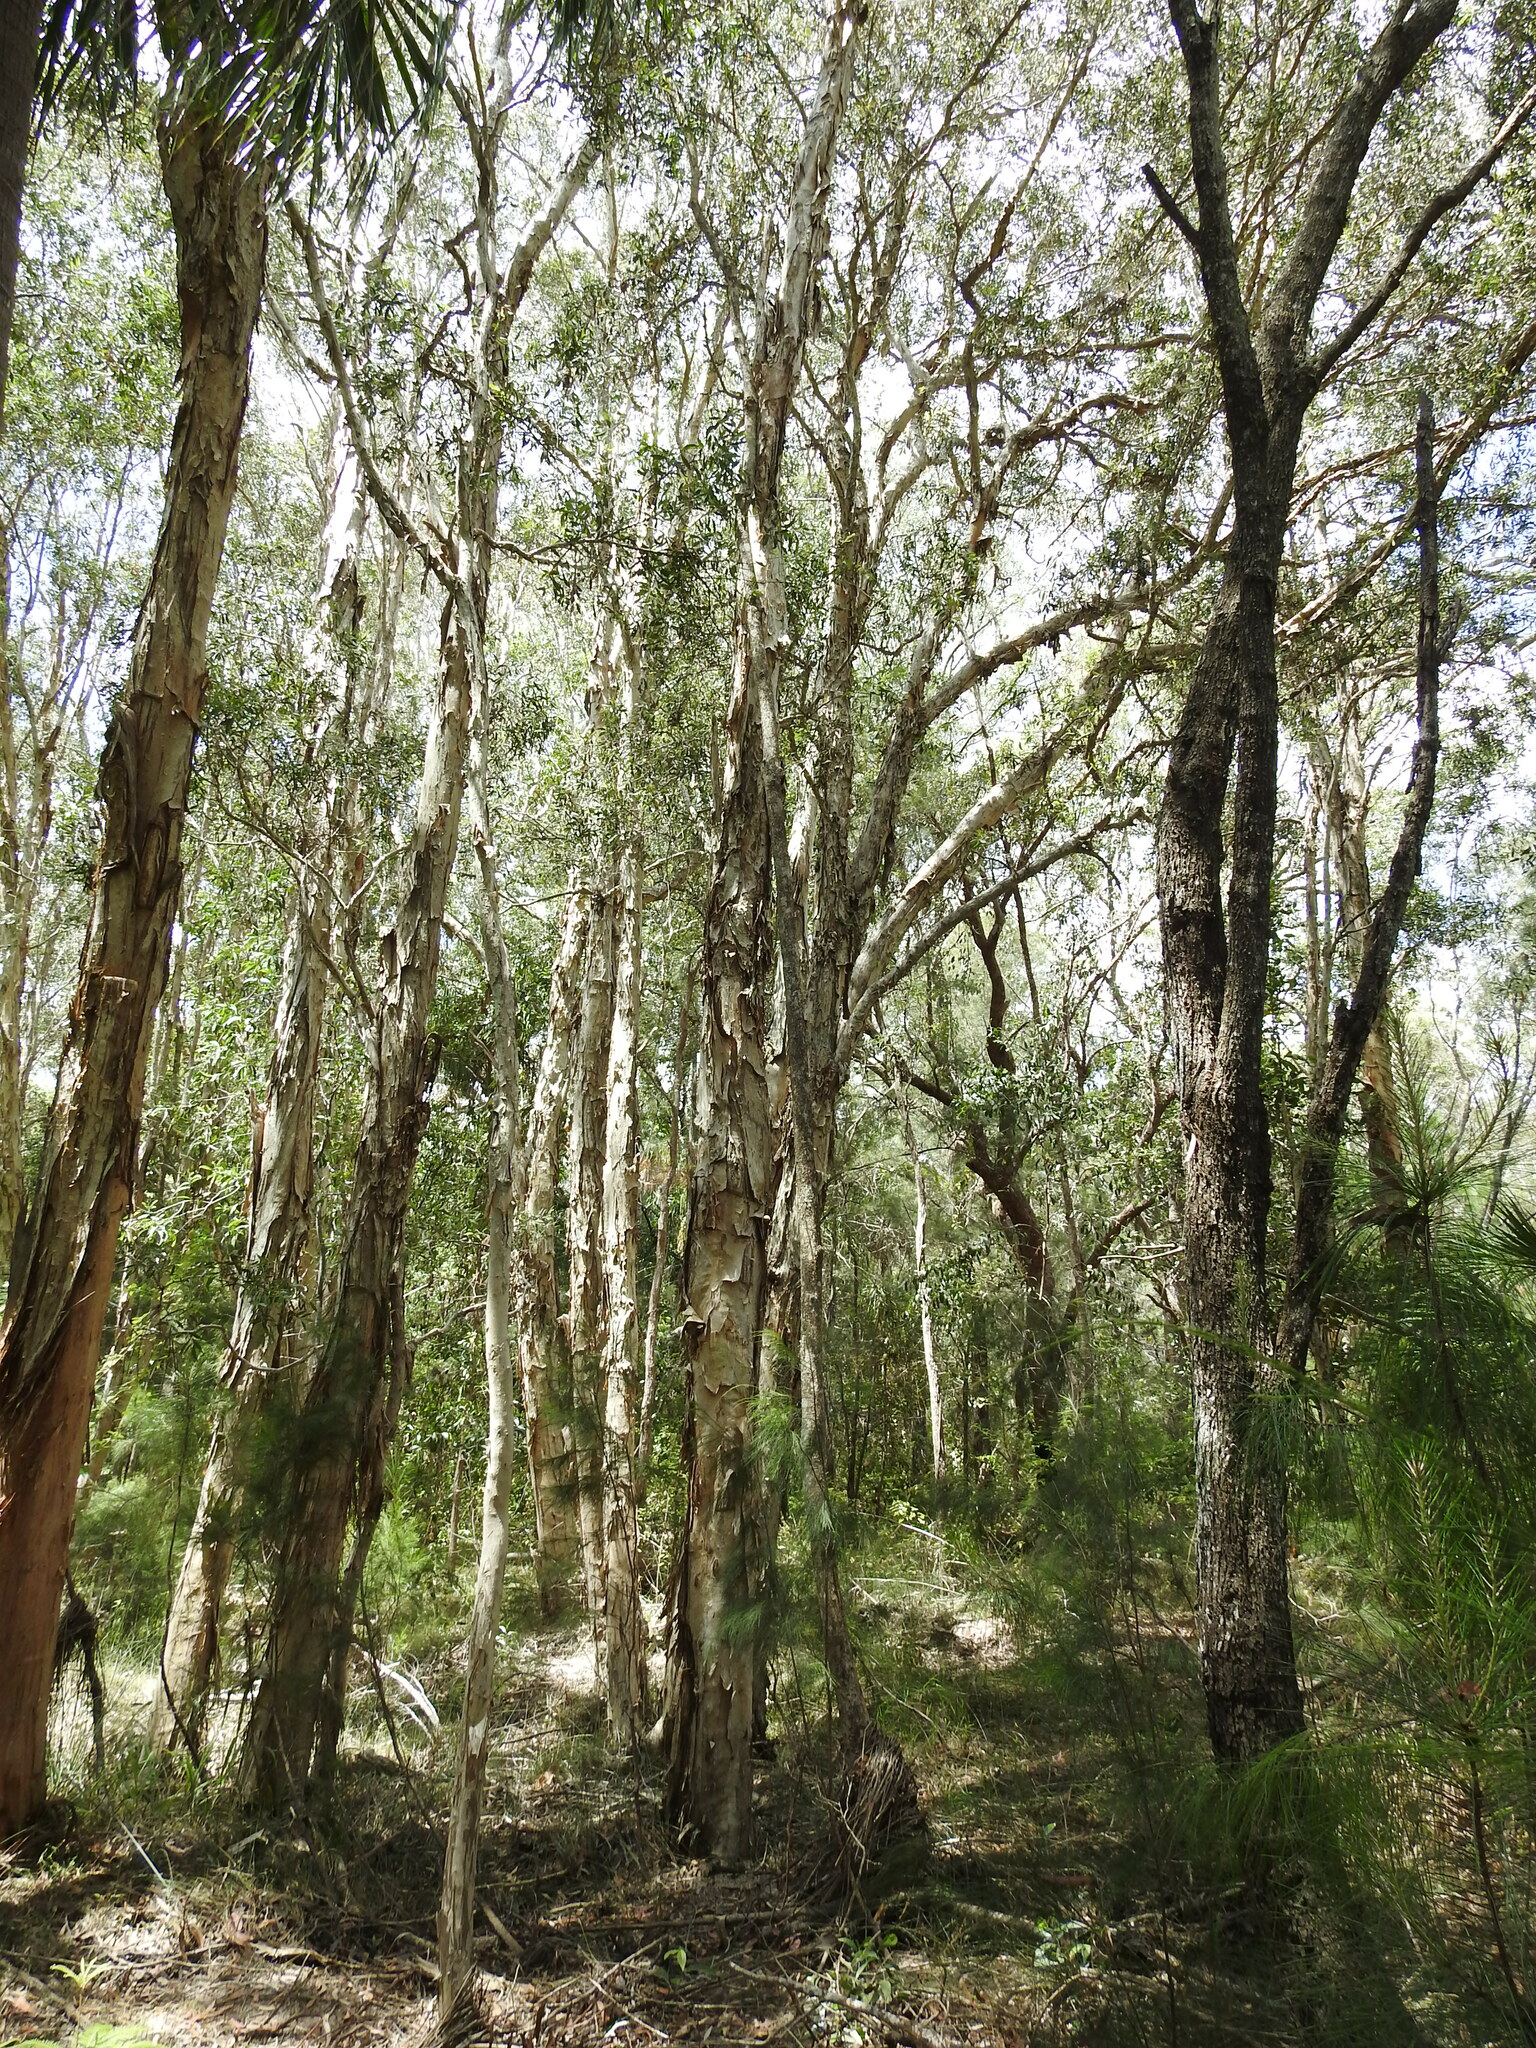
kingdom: Plantae
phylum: Tracheophyta
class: Magnoliopsida
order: Myrtales
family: Myrtaceae
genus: Melaleuca
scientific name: Melaleuca quinquenervia
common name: Punktree
